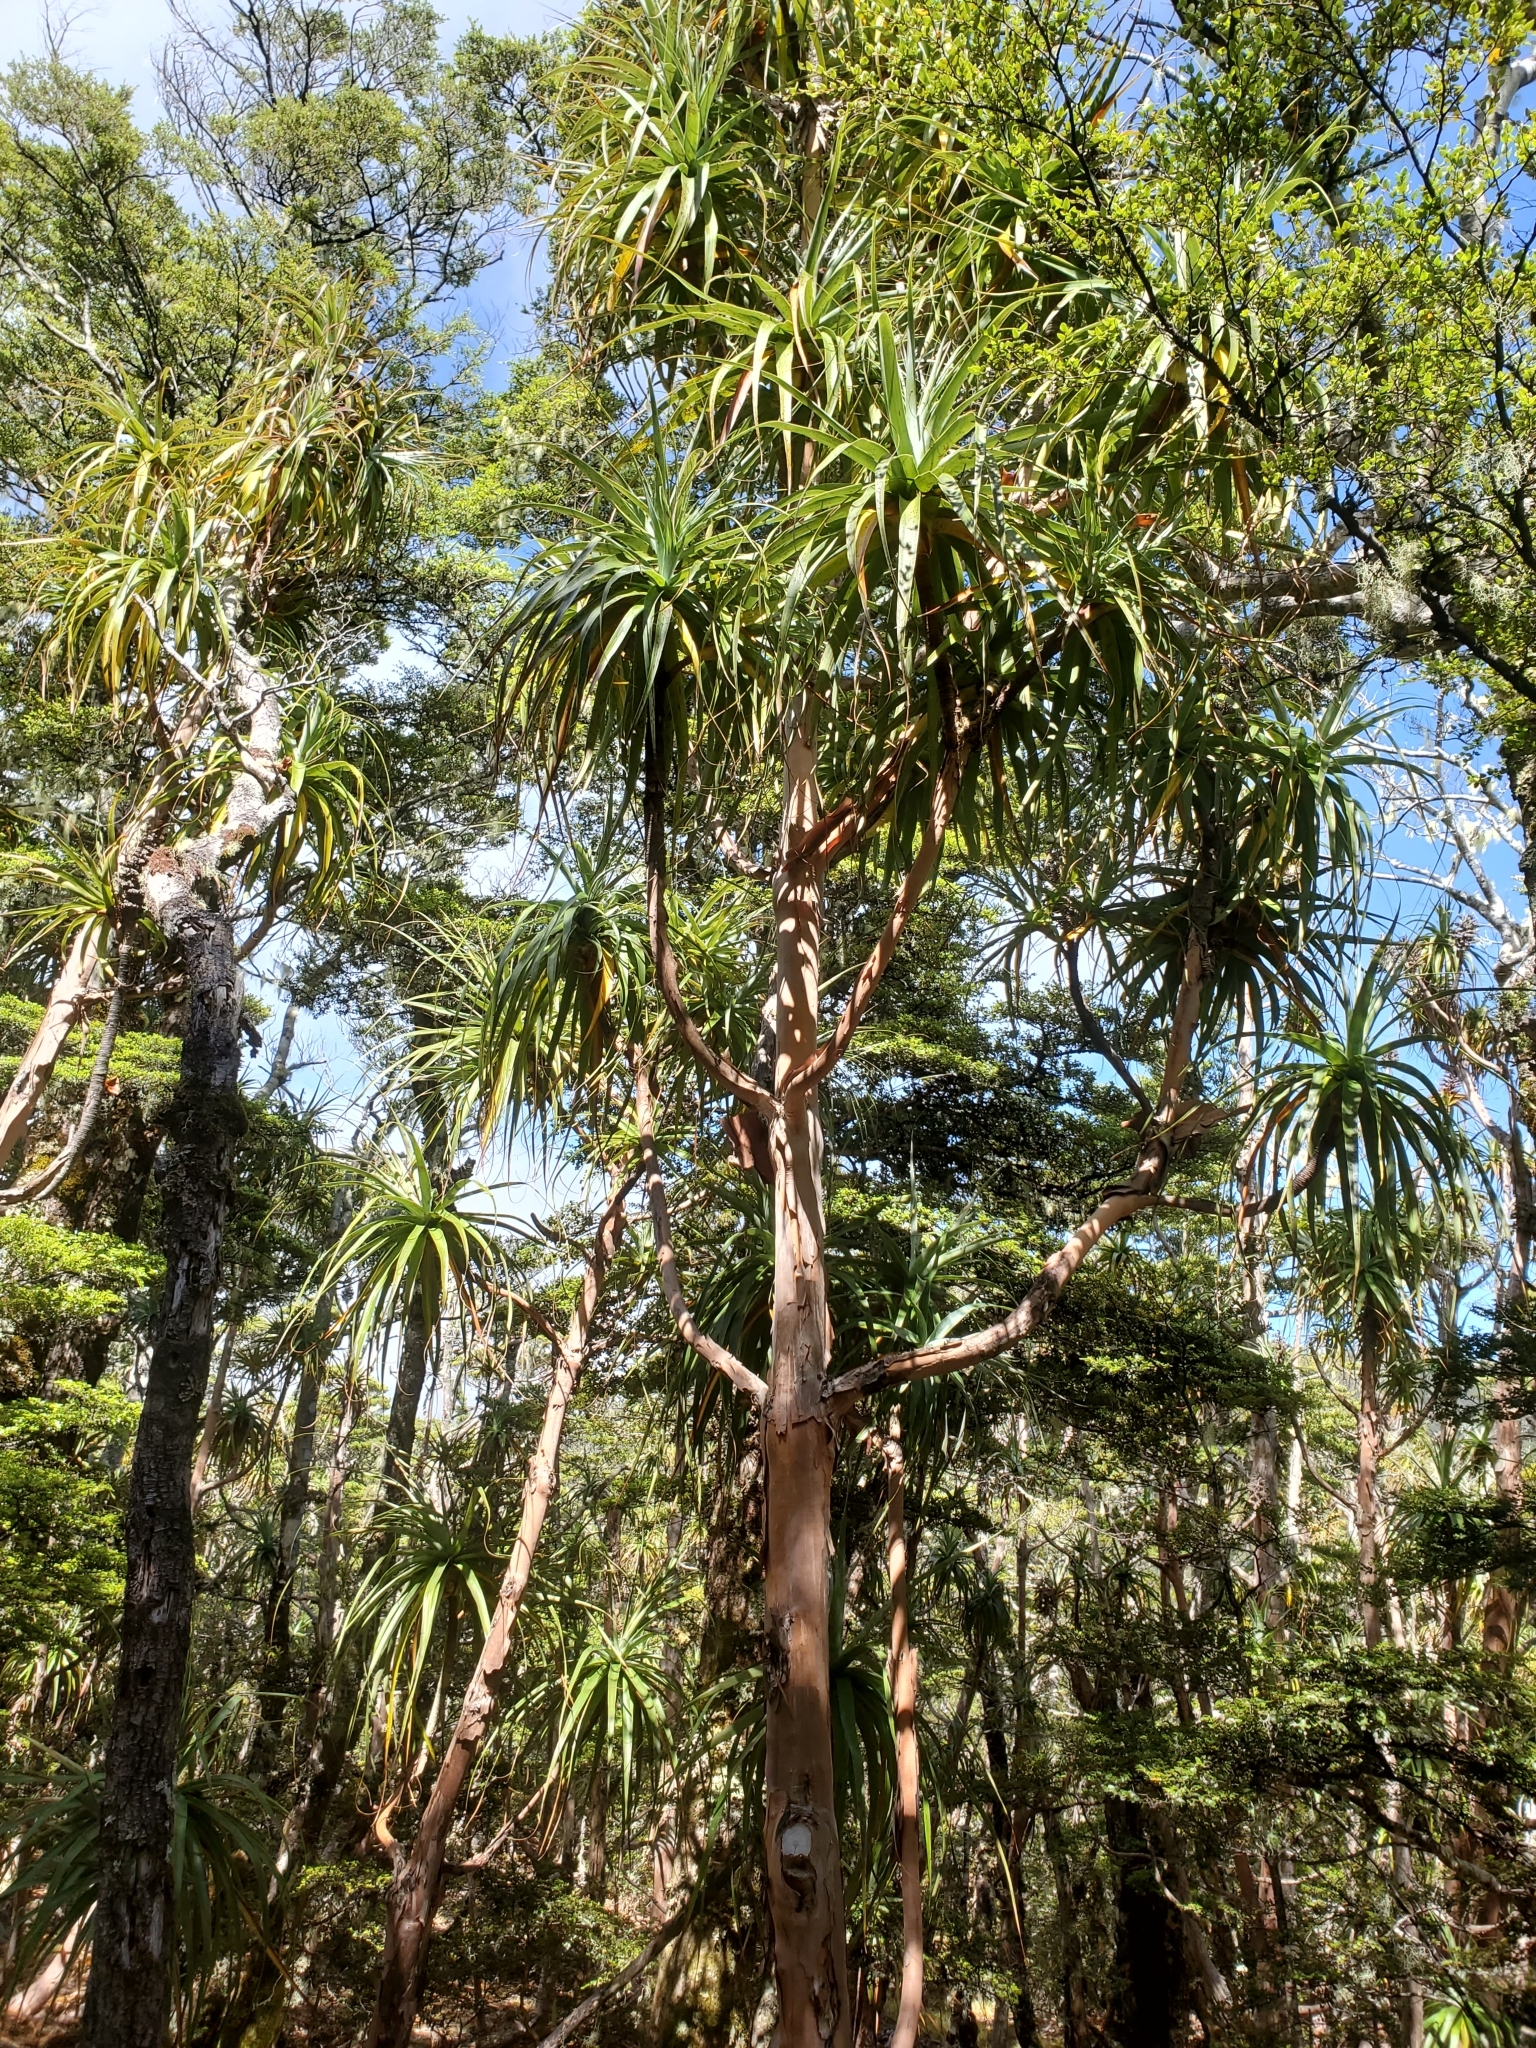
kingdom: Plantae
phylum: Tracheophyta
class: Magnoliopsida
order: Ericales
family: Ericaceae
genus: Dracophyllum
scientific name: Dracophyllum traversii
